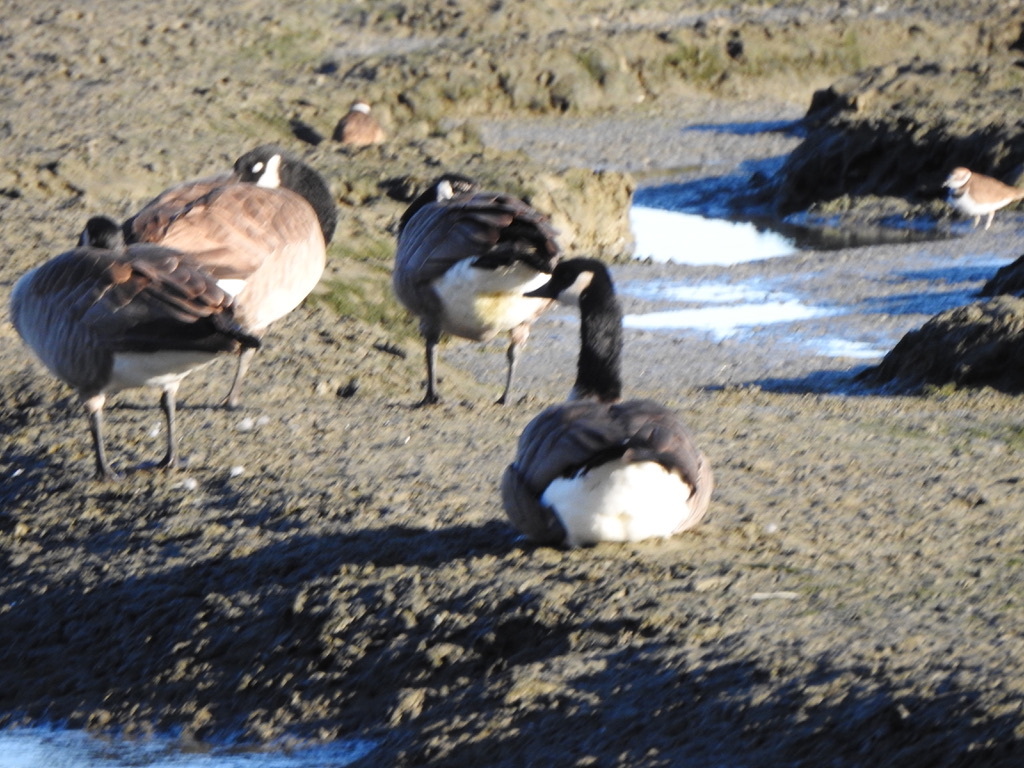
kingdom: Animalia
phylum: Chordata
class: Aves
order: Anseriformes
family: Anatidae
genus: Branta
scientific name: Branta canadensis
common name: Canada goose
